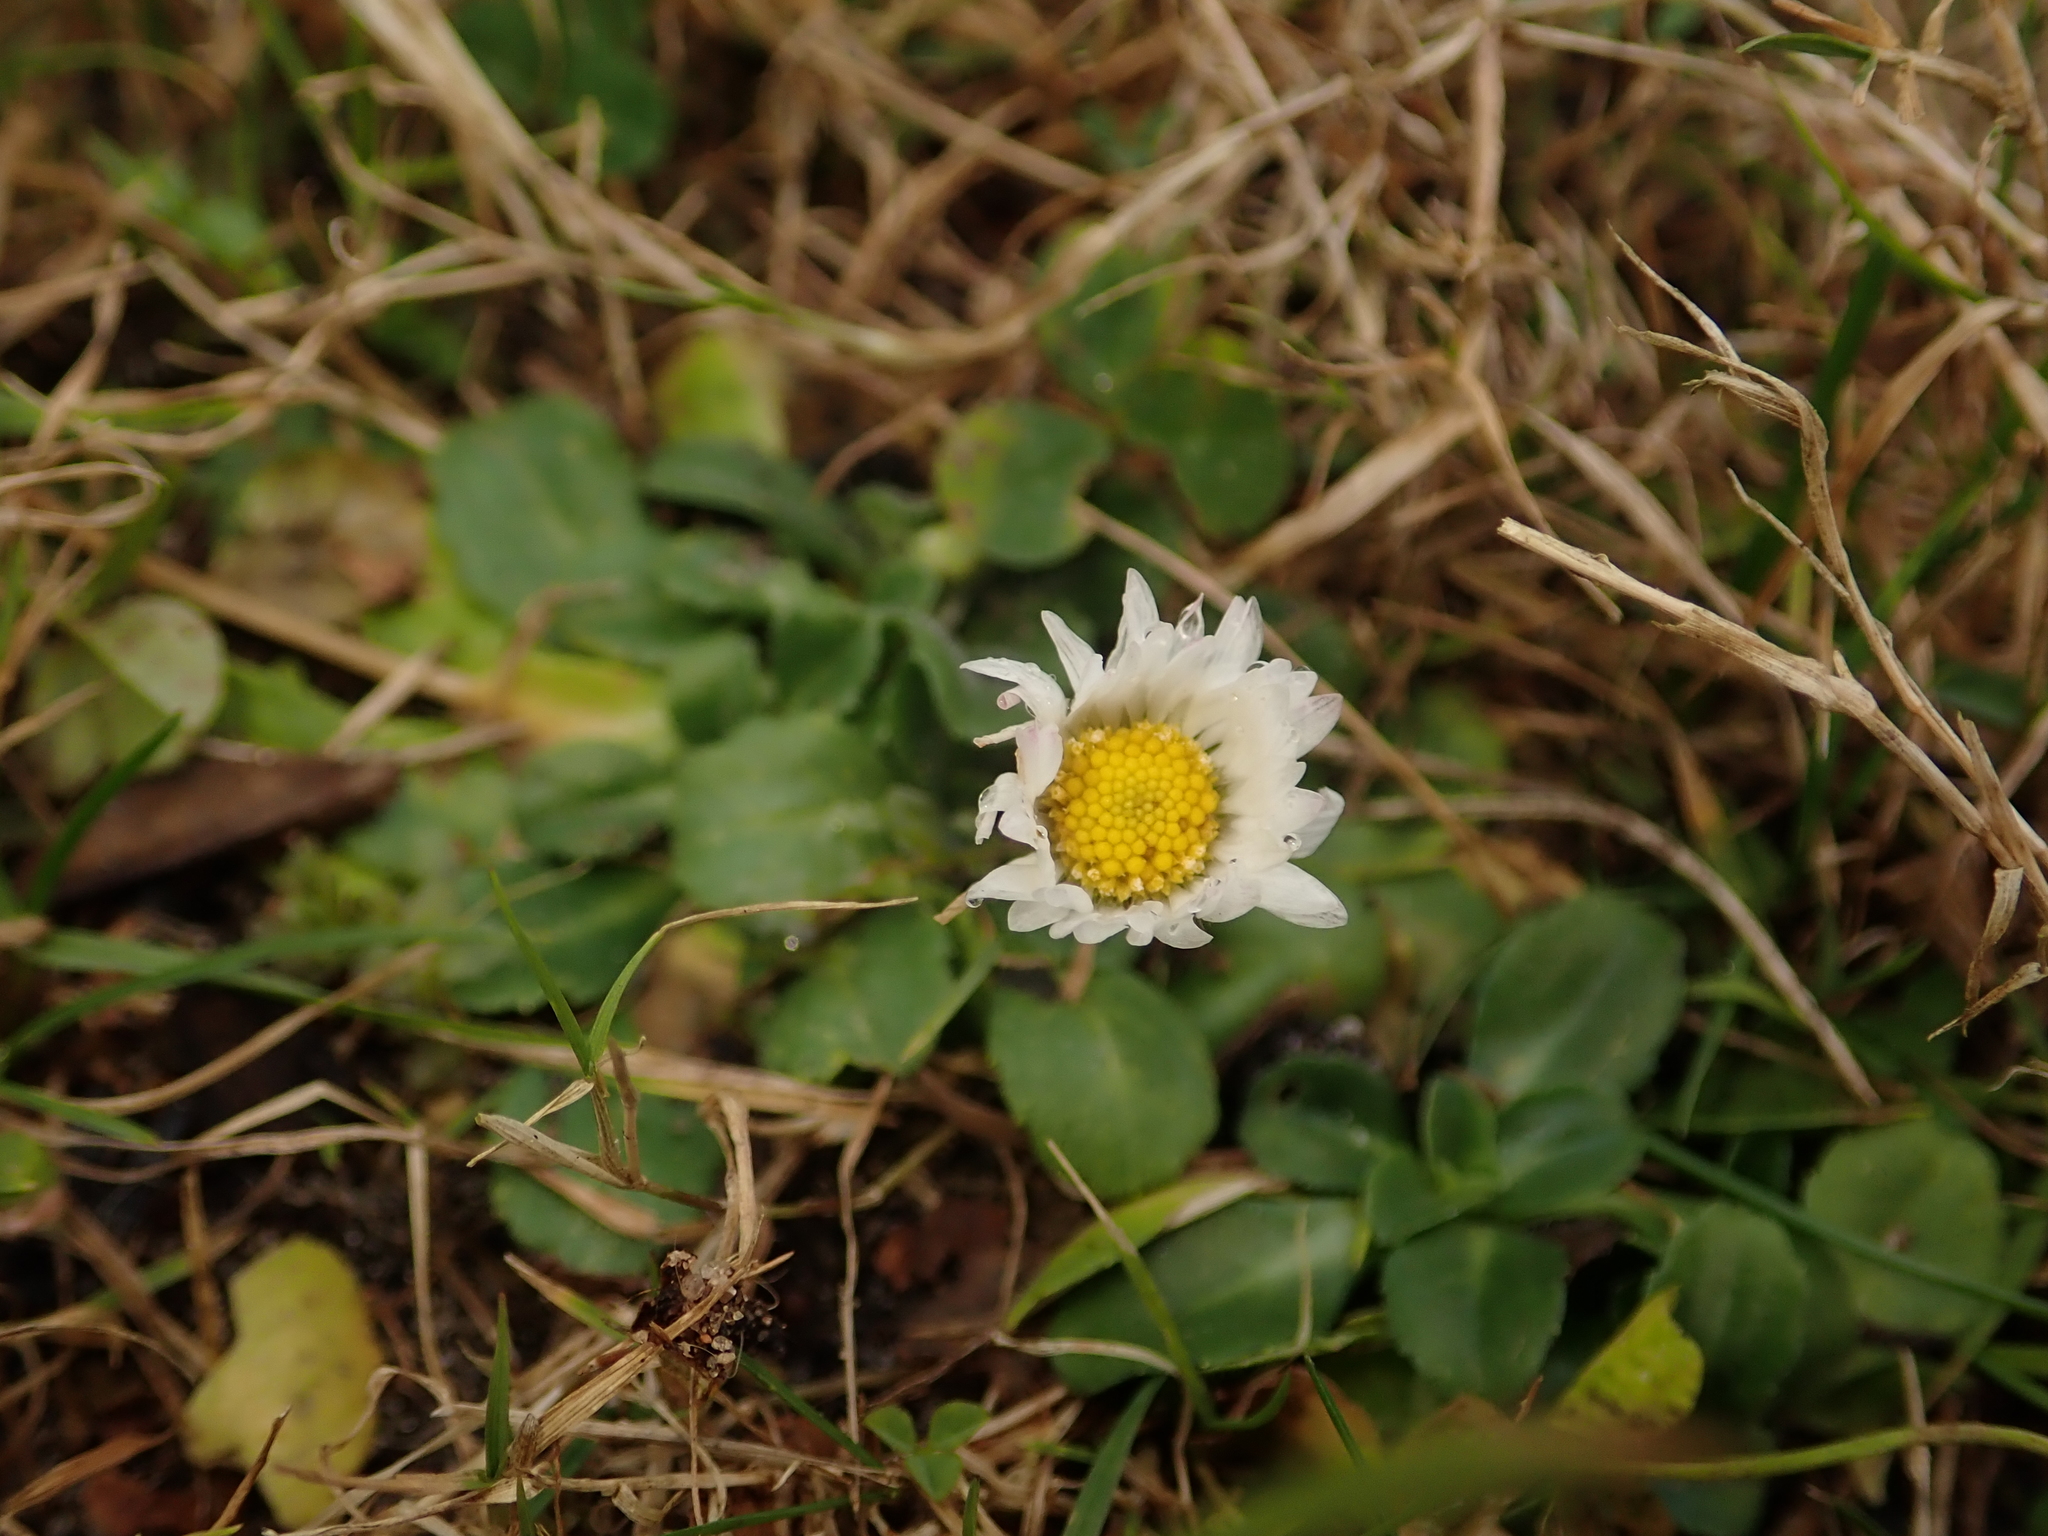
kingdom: Plantae
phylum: Tracheophyta
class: Magnoliopsida
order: Asterales
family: Asteraceae
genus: Bellis
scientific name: Bellis perennis
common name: Lawndaisy
